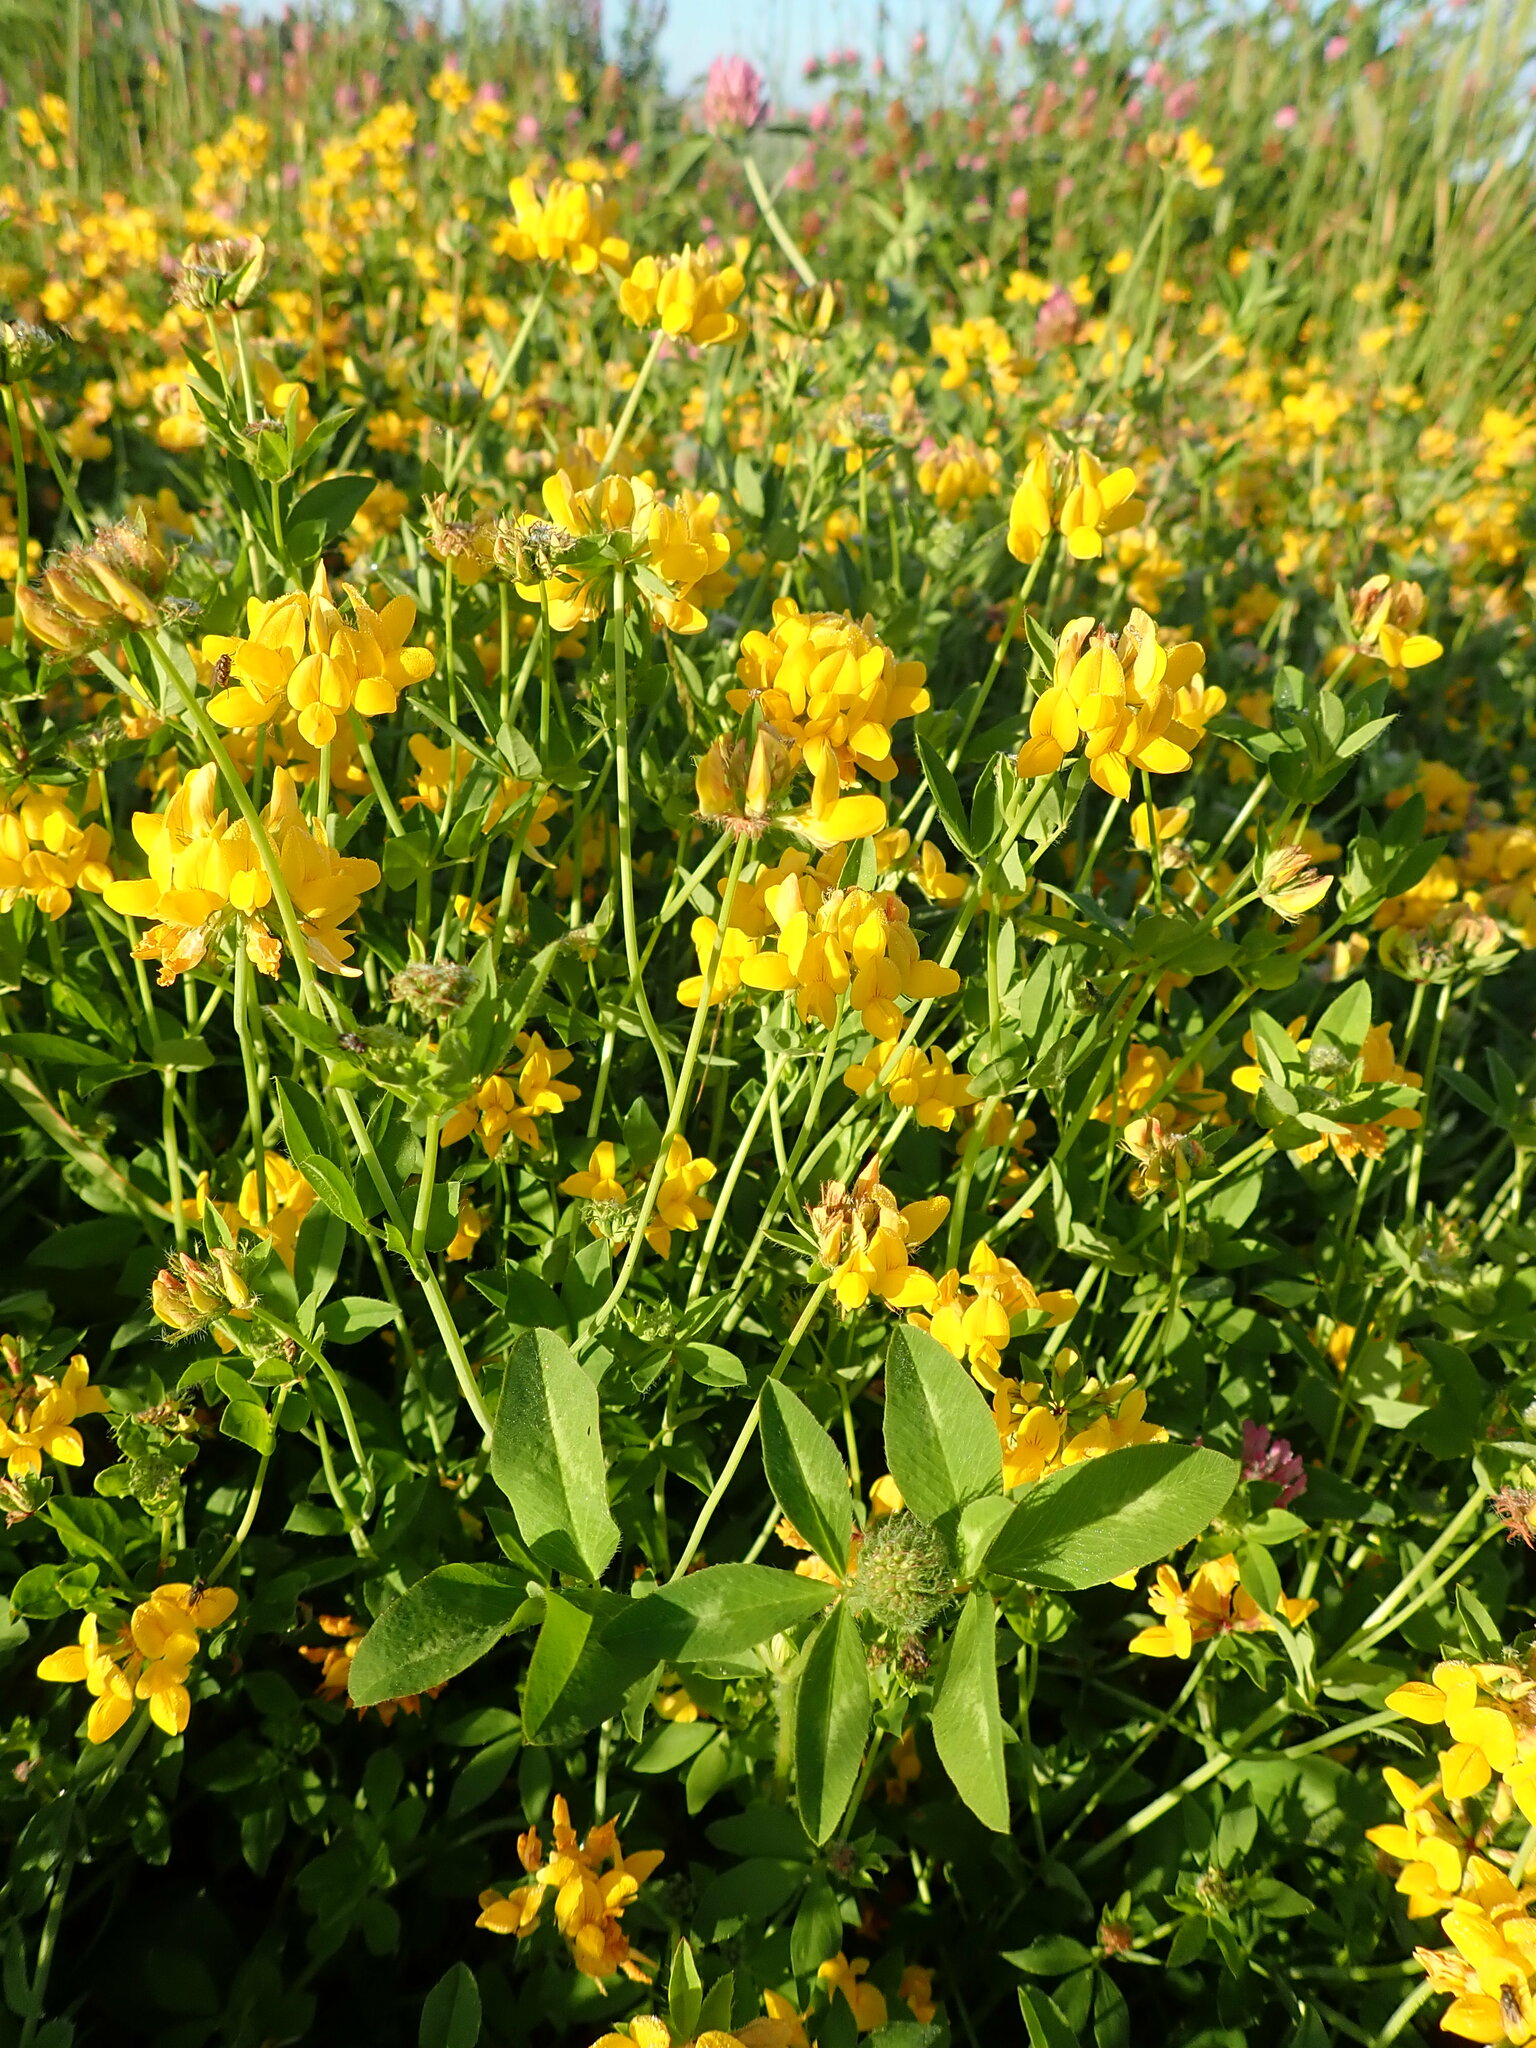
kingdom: Plantae
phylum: Tracheophyta
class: Magnoliopsida
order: Fabales
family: Fabaceae
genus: Lotus
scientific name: Lotus pedunculatus
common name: Greater birdsfoot-trefoil
